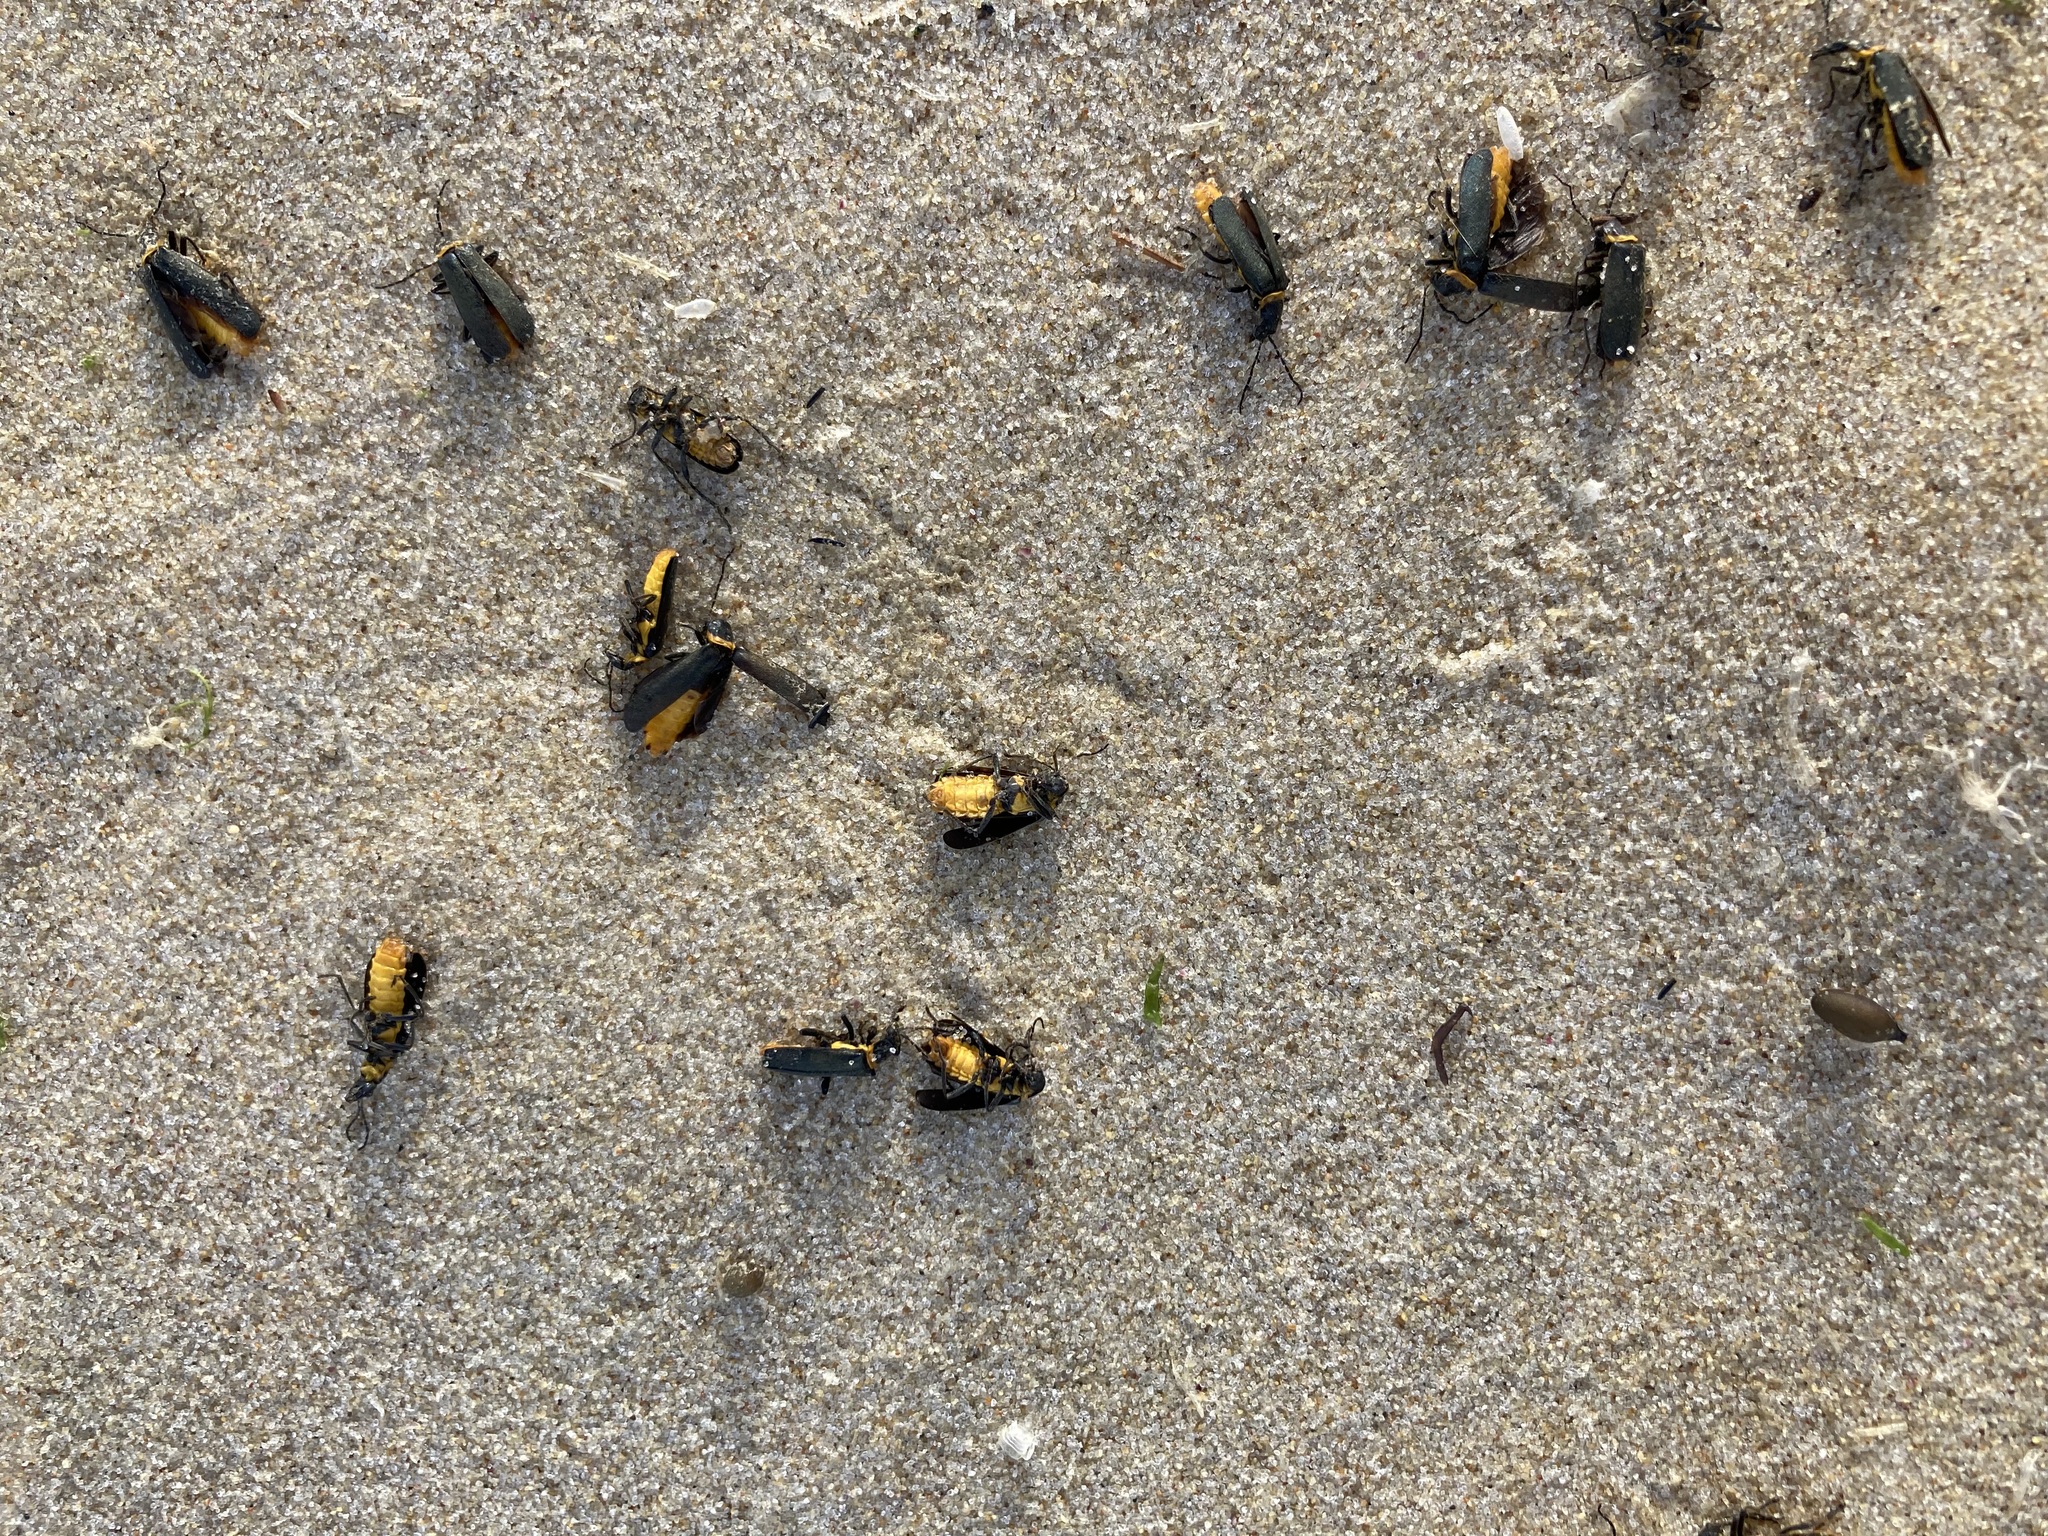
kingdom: Animalia
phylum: Arthropoda
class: Insecta
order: Coleoptera
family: Cantharidae
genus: Chauliognathus
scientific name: Chauliognathus
